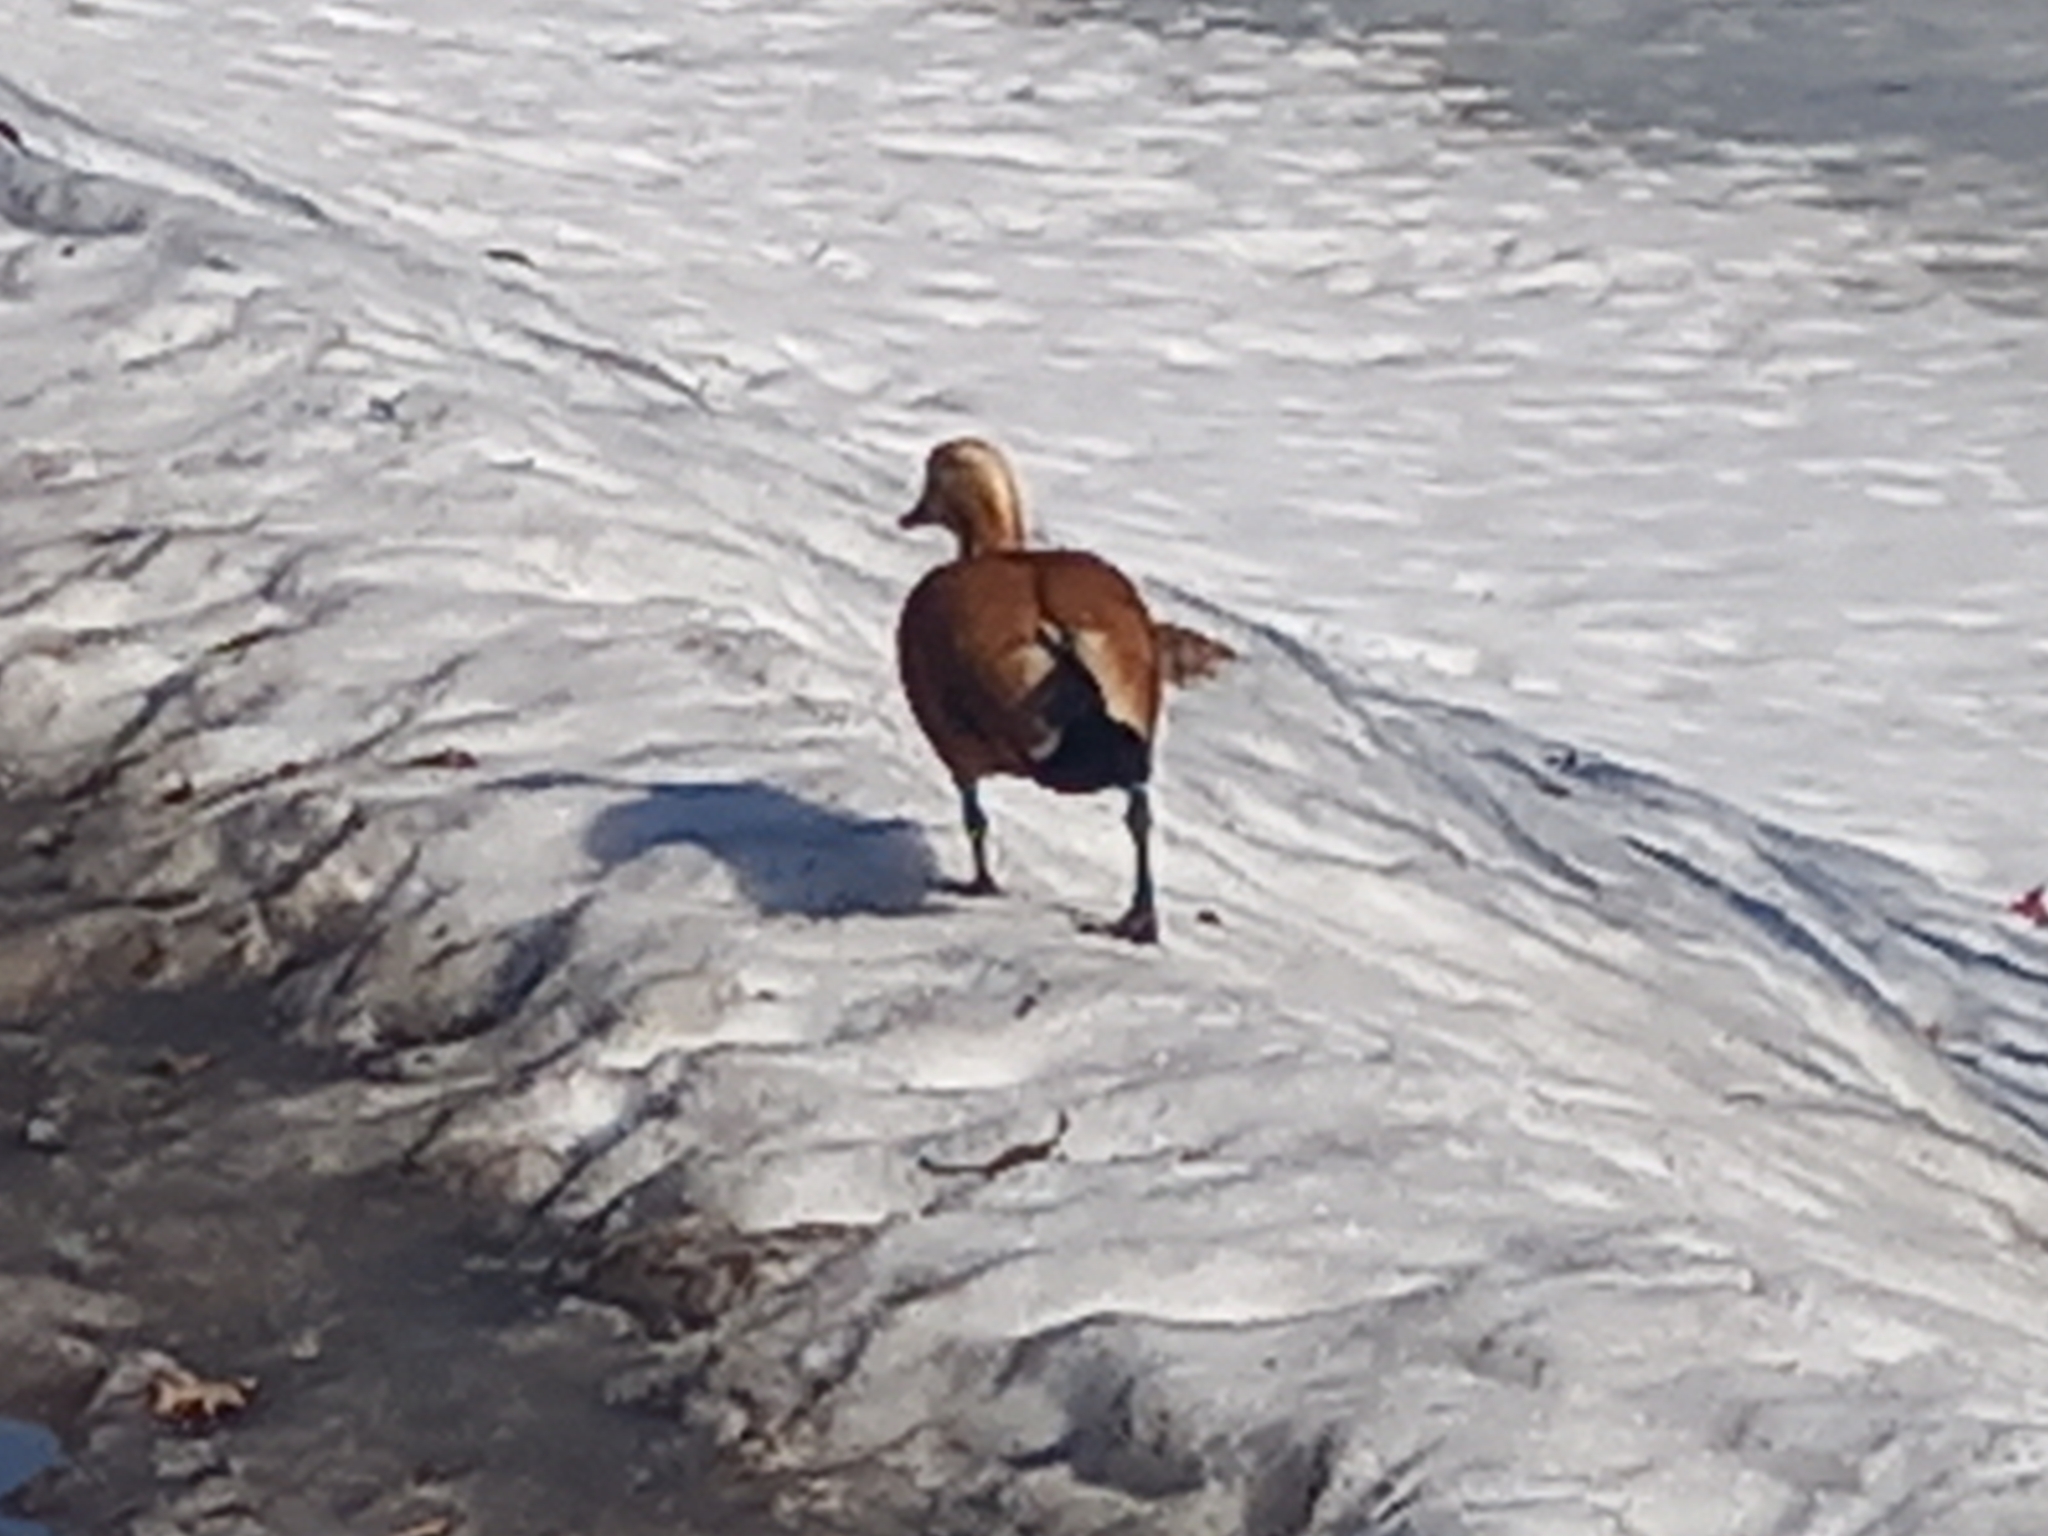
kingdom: Animalia
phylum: Chordata
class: Aves
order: Anseriformes
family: Anatidae
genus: Tadorna
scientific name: Tadorna ferruginea
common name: Ruddy shelduck
